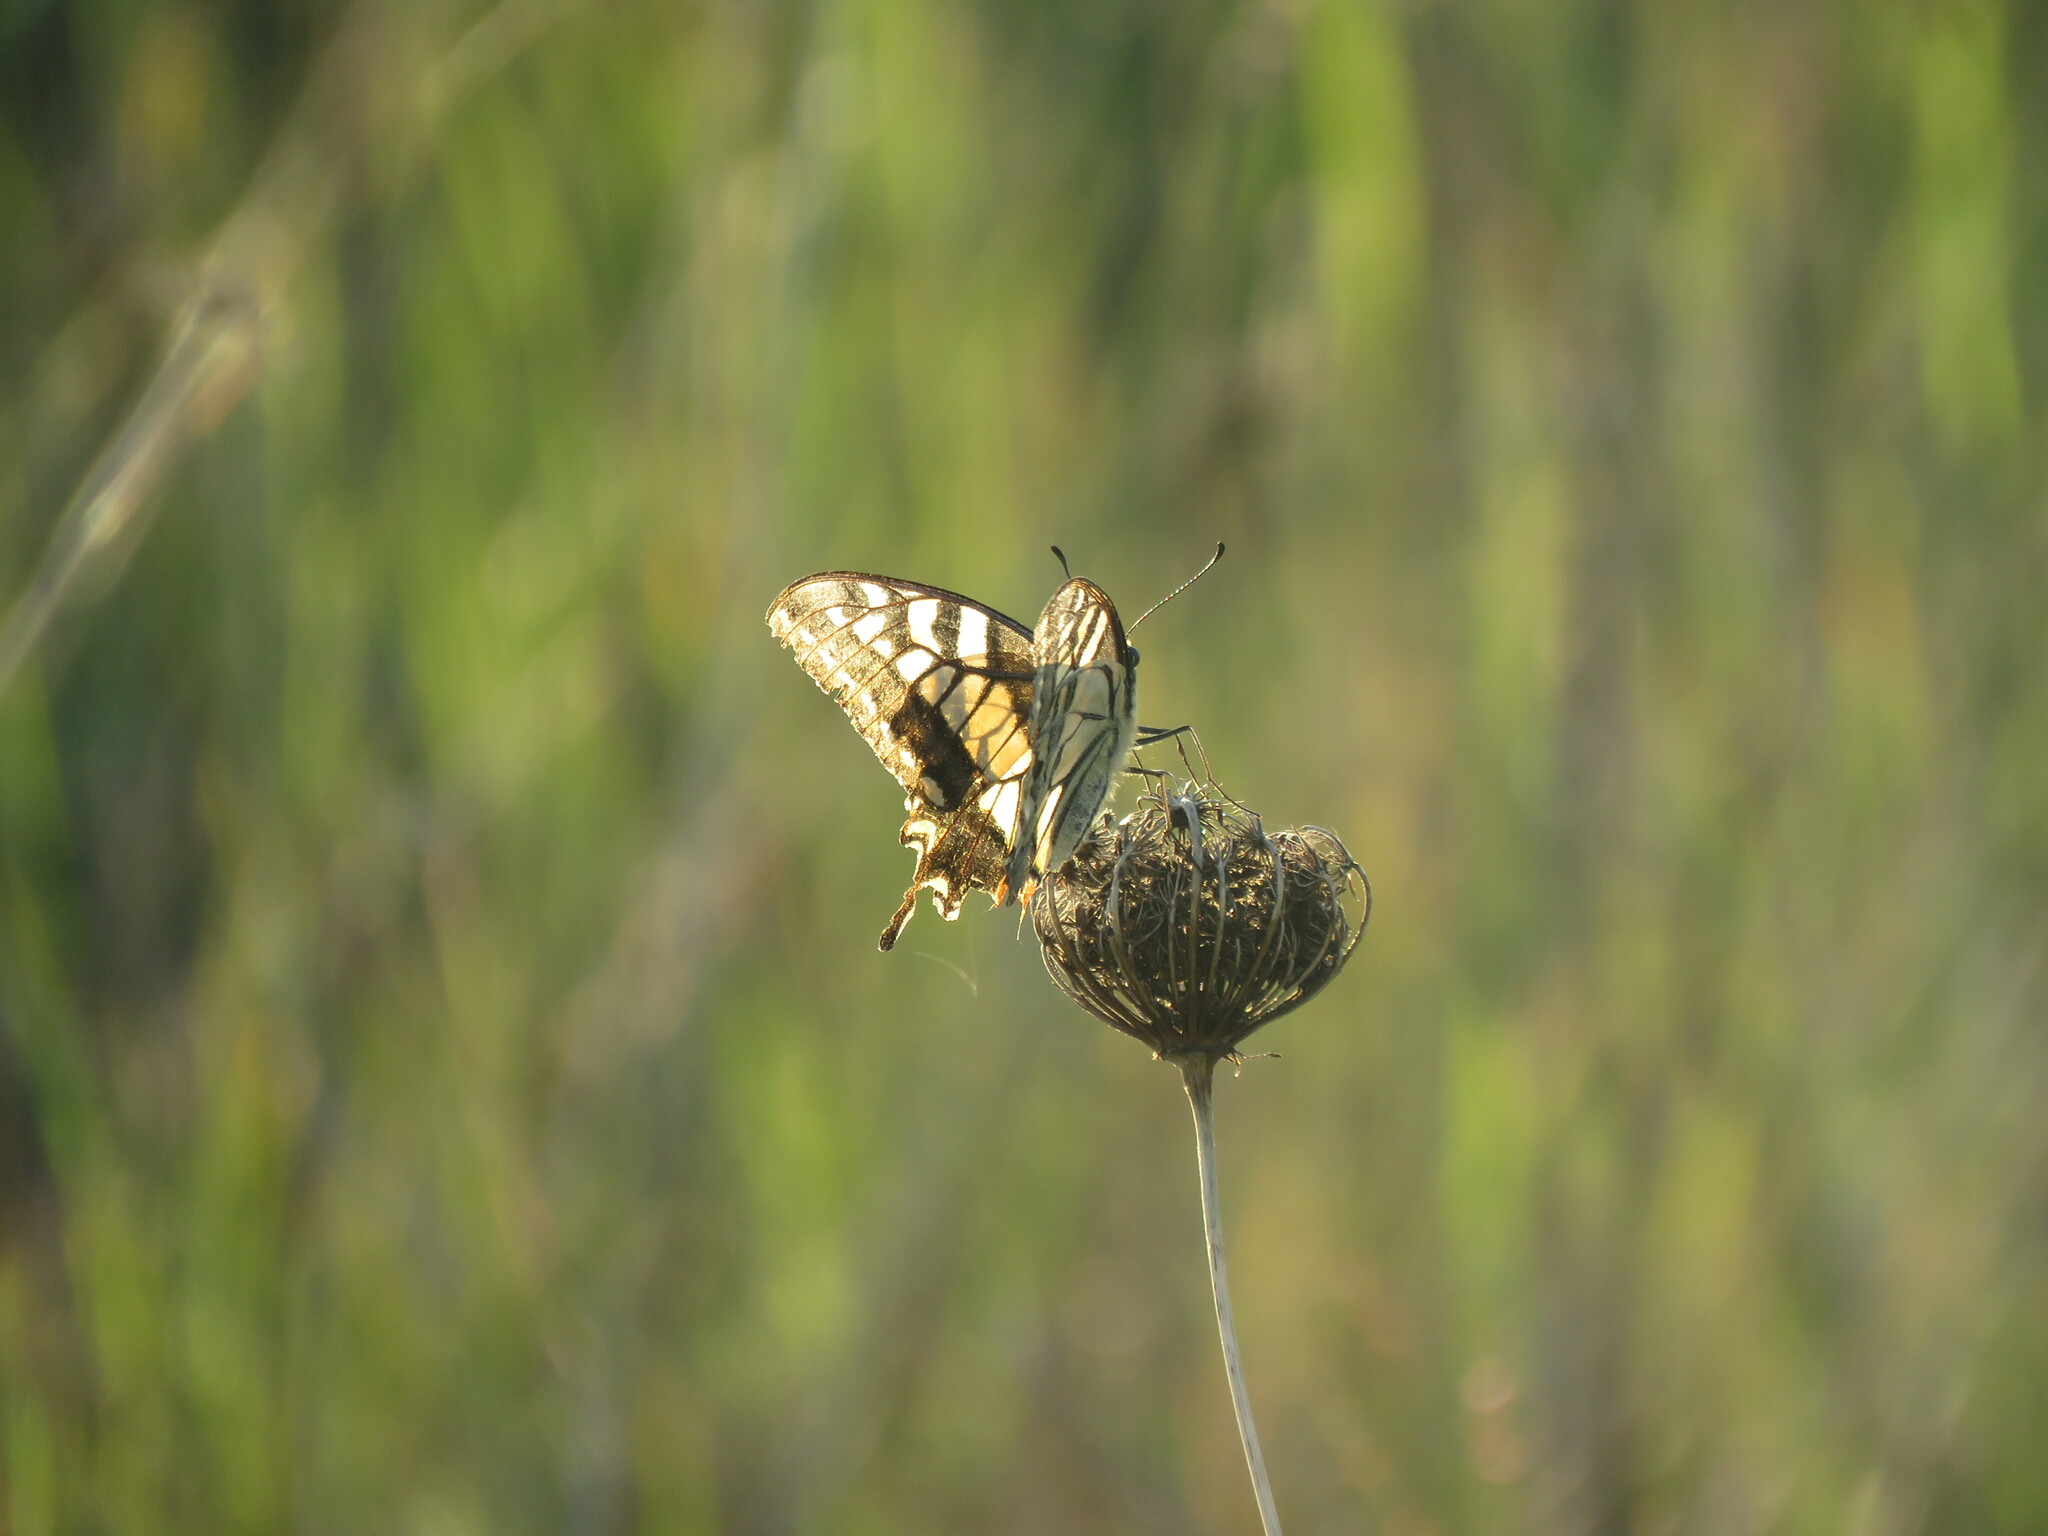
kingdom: Animalia
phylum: Arthropoda
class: Insecta
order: Lepidoptera
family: Papilionidae
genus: Papilio
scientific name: Papilio machaon
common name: Swallowtail
